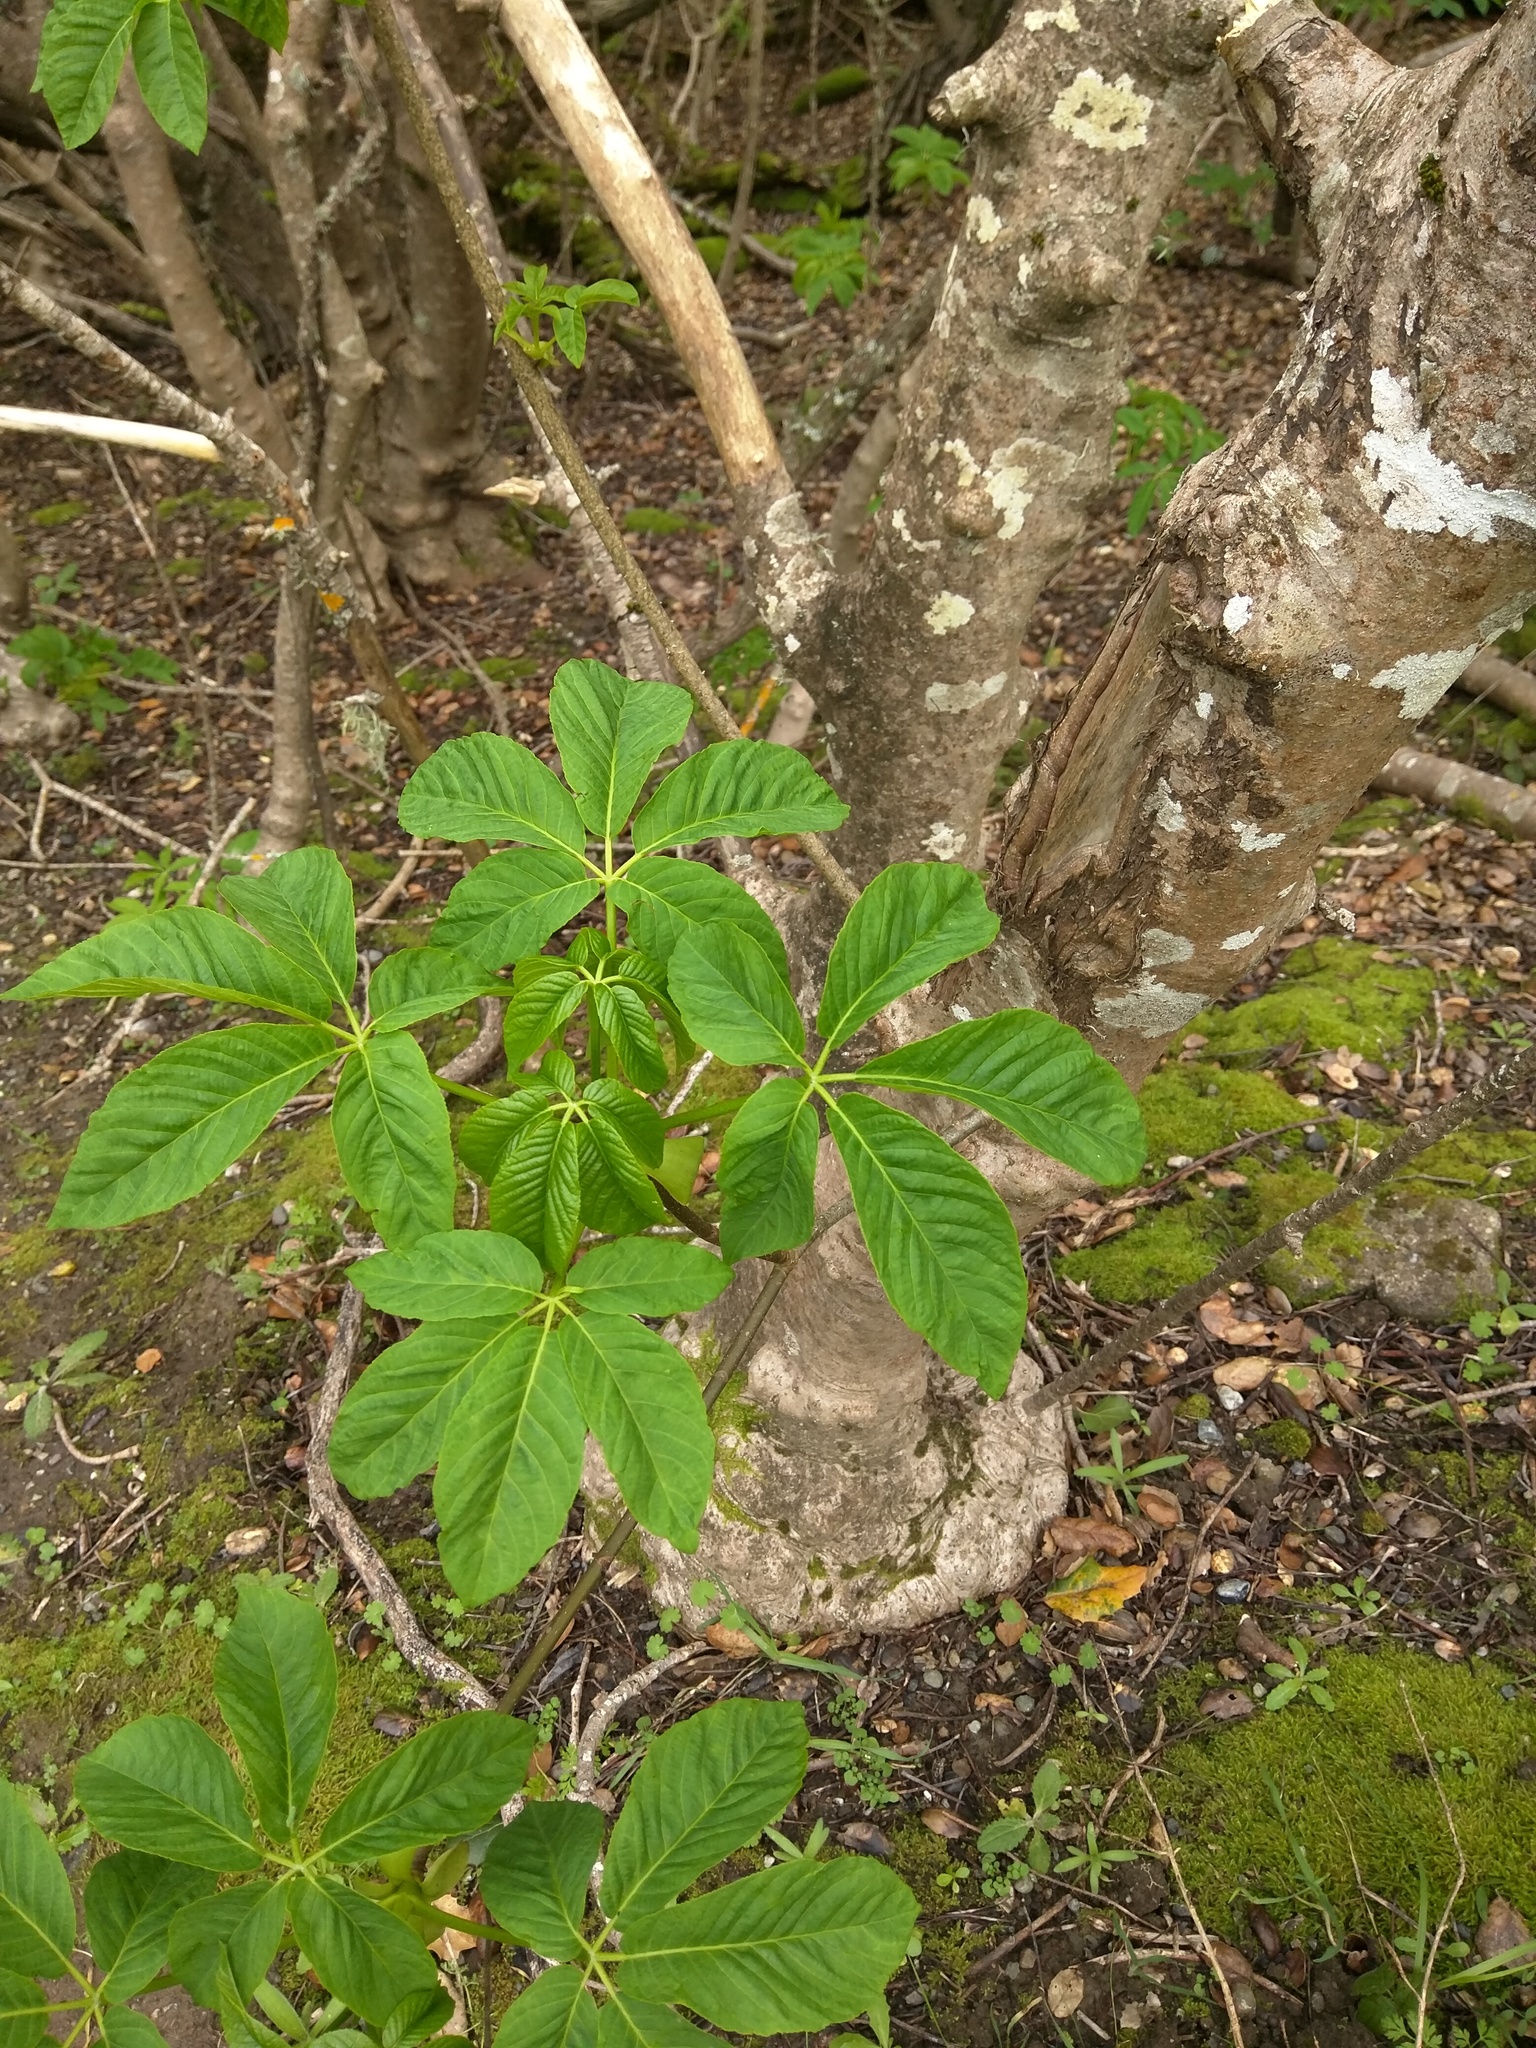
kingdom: Plantae
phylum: Tracheophyta
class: Magnoliopsida
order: Sapindales
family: Sapindaceae
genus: Aesculus
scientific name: Aesculus californica
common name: California buckeye
